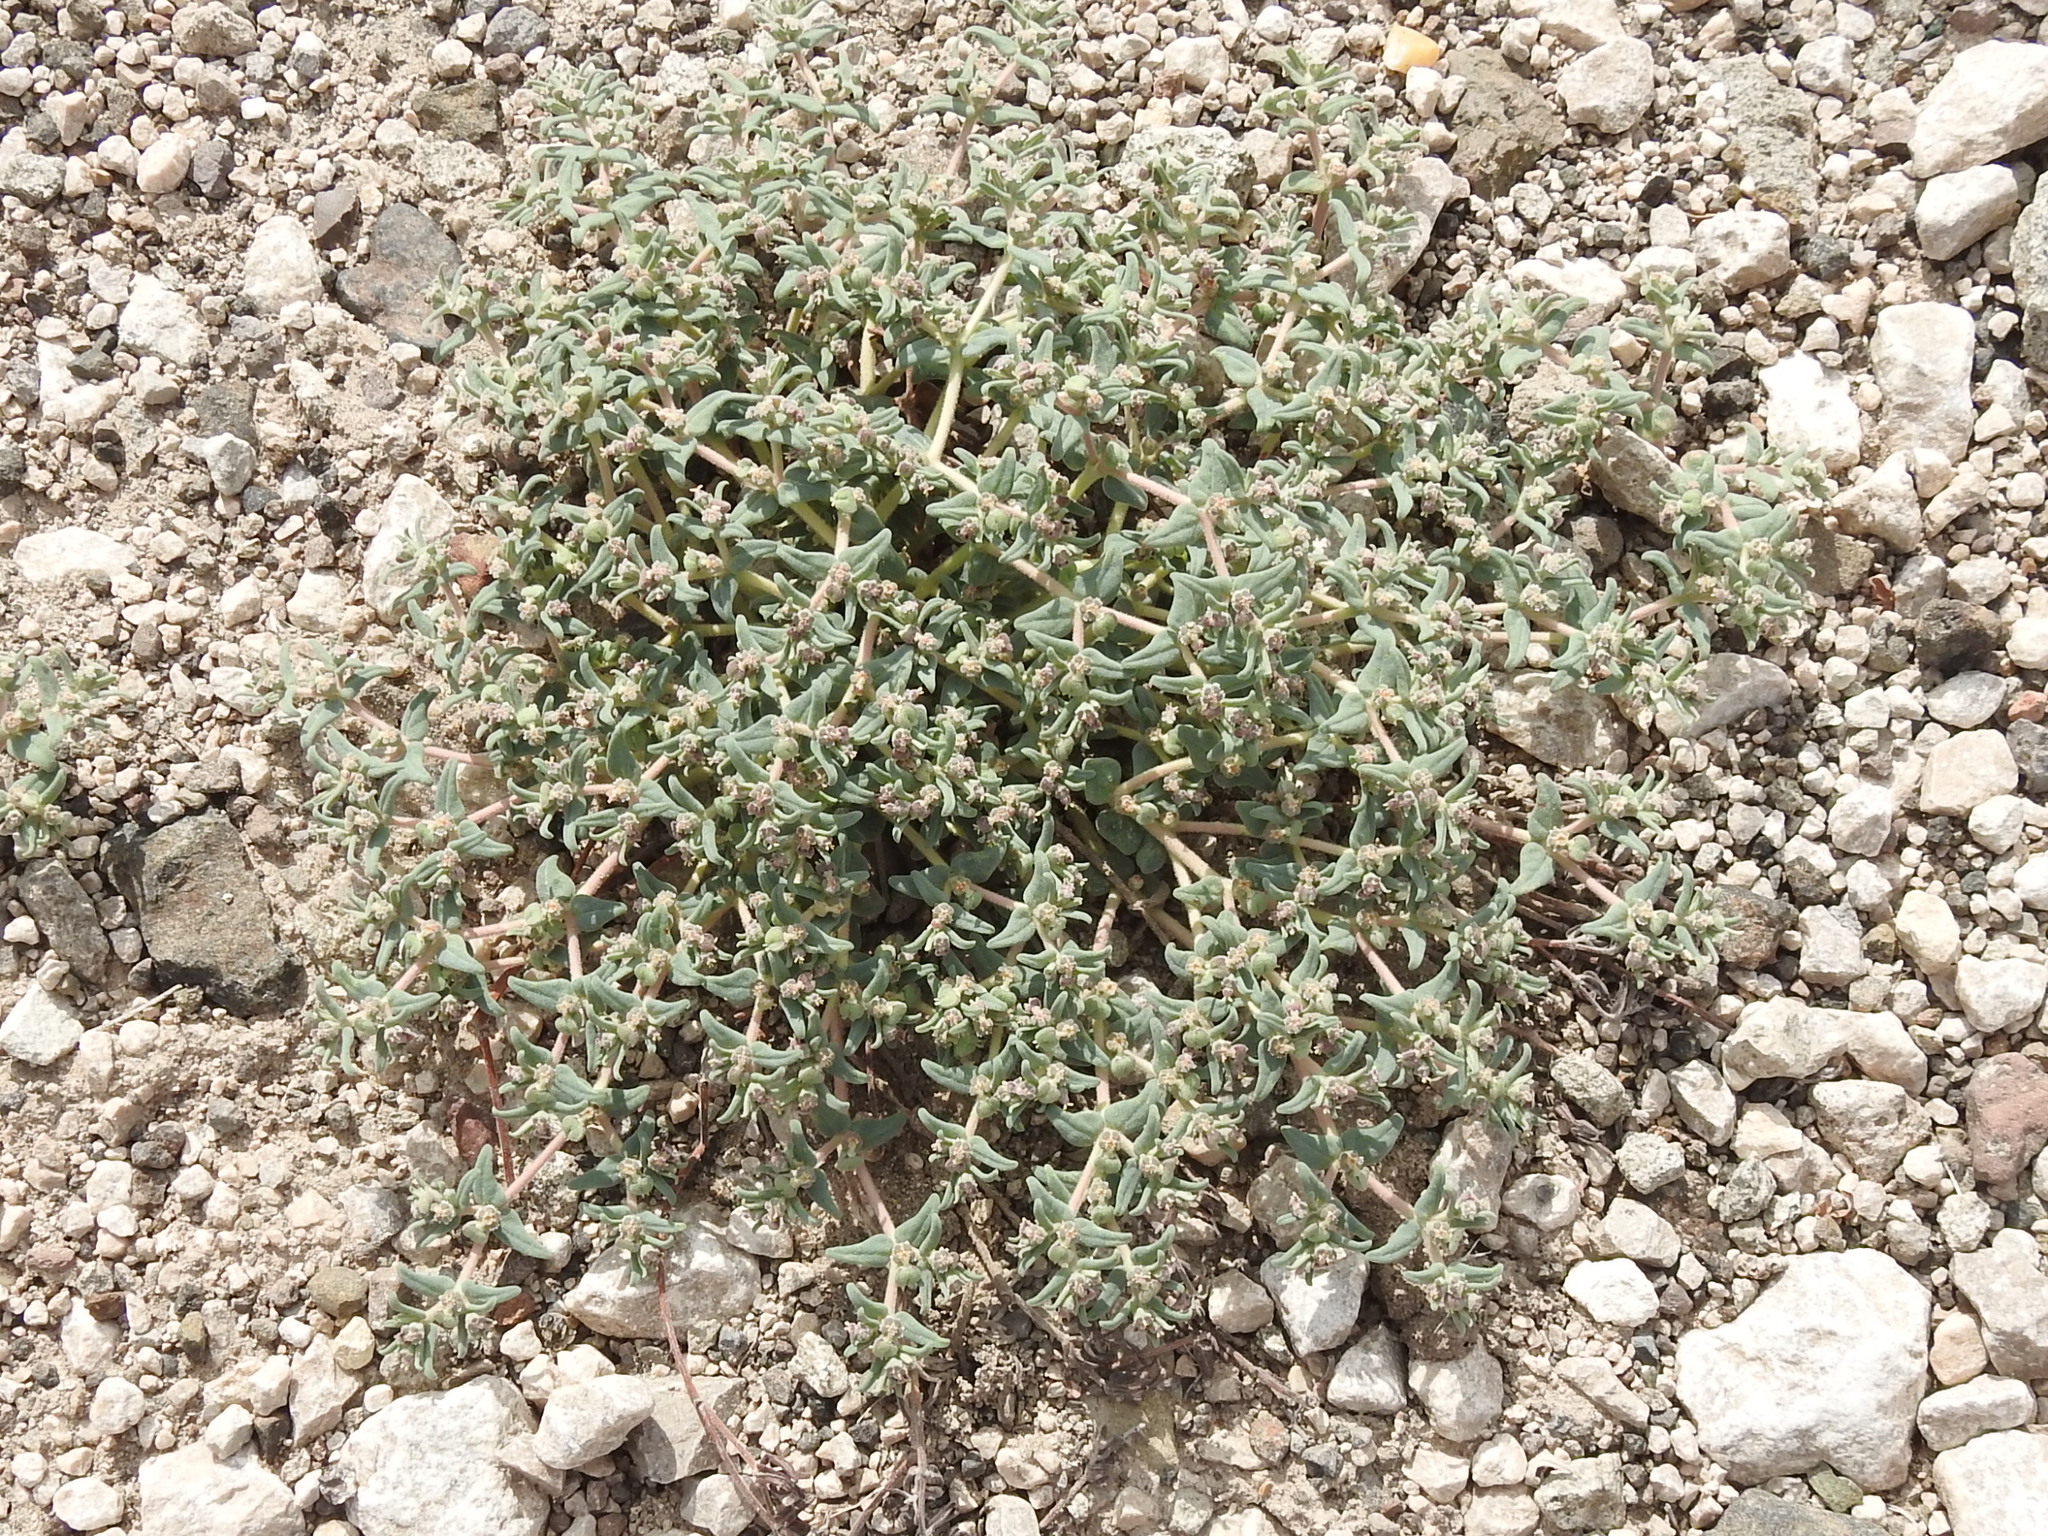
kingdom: Plantae
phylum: Tracheophyta
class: Magnoliopsida
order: Malpighiales
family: Euphorbiaceae
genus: Euphorbia
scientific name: Euphorbia lata
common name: Hoary euphorbia
